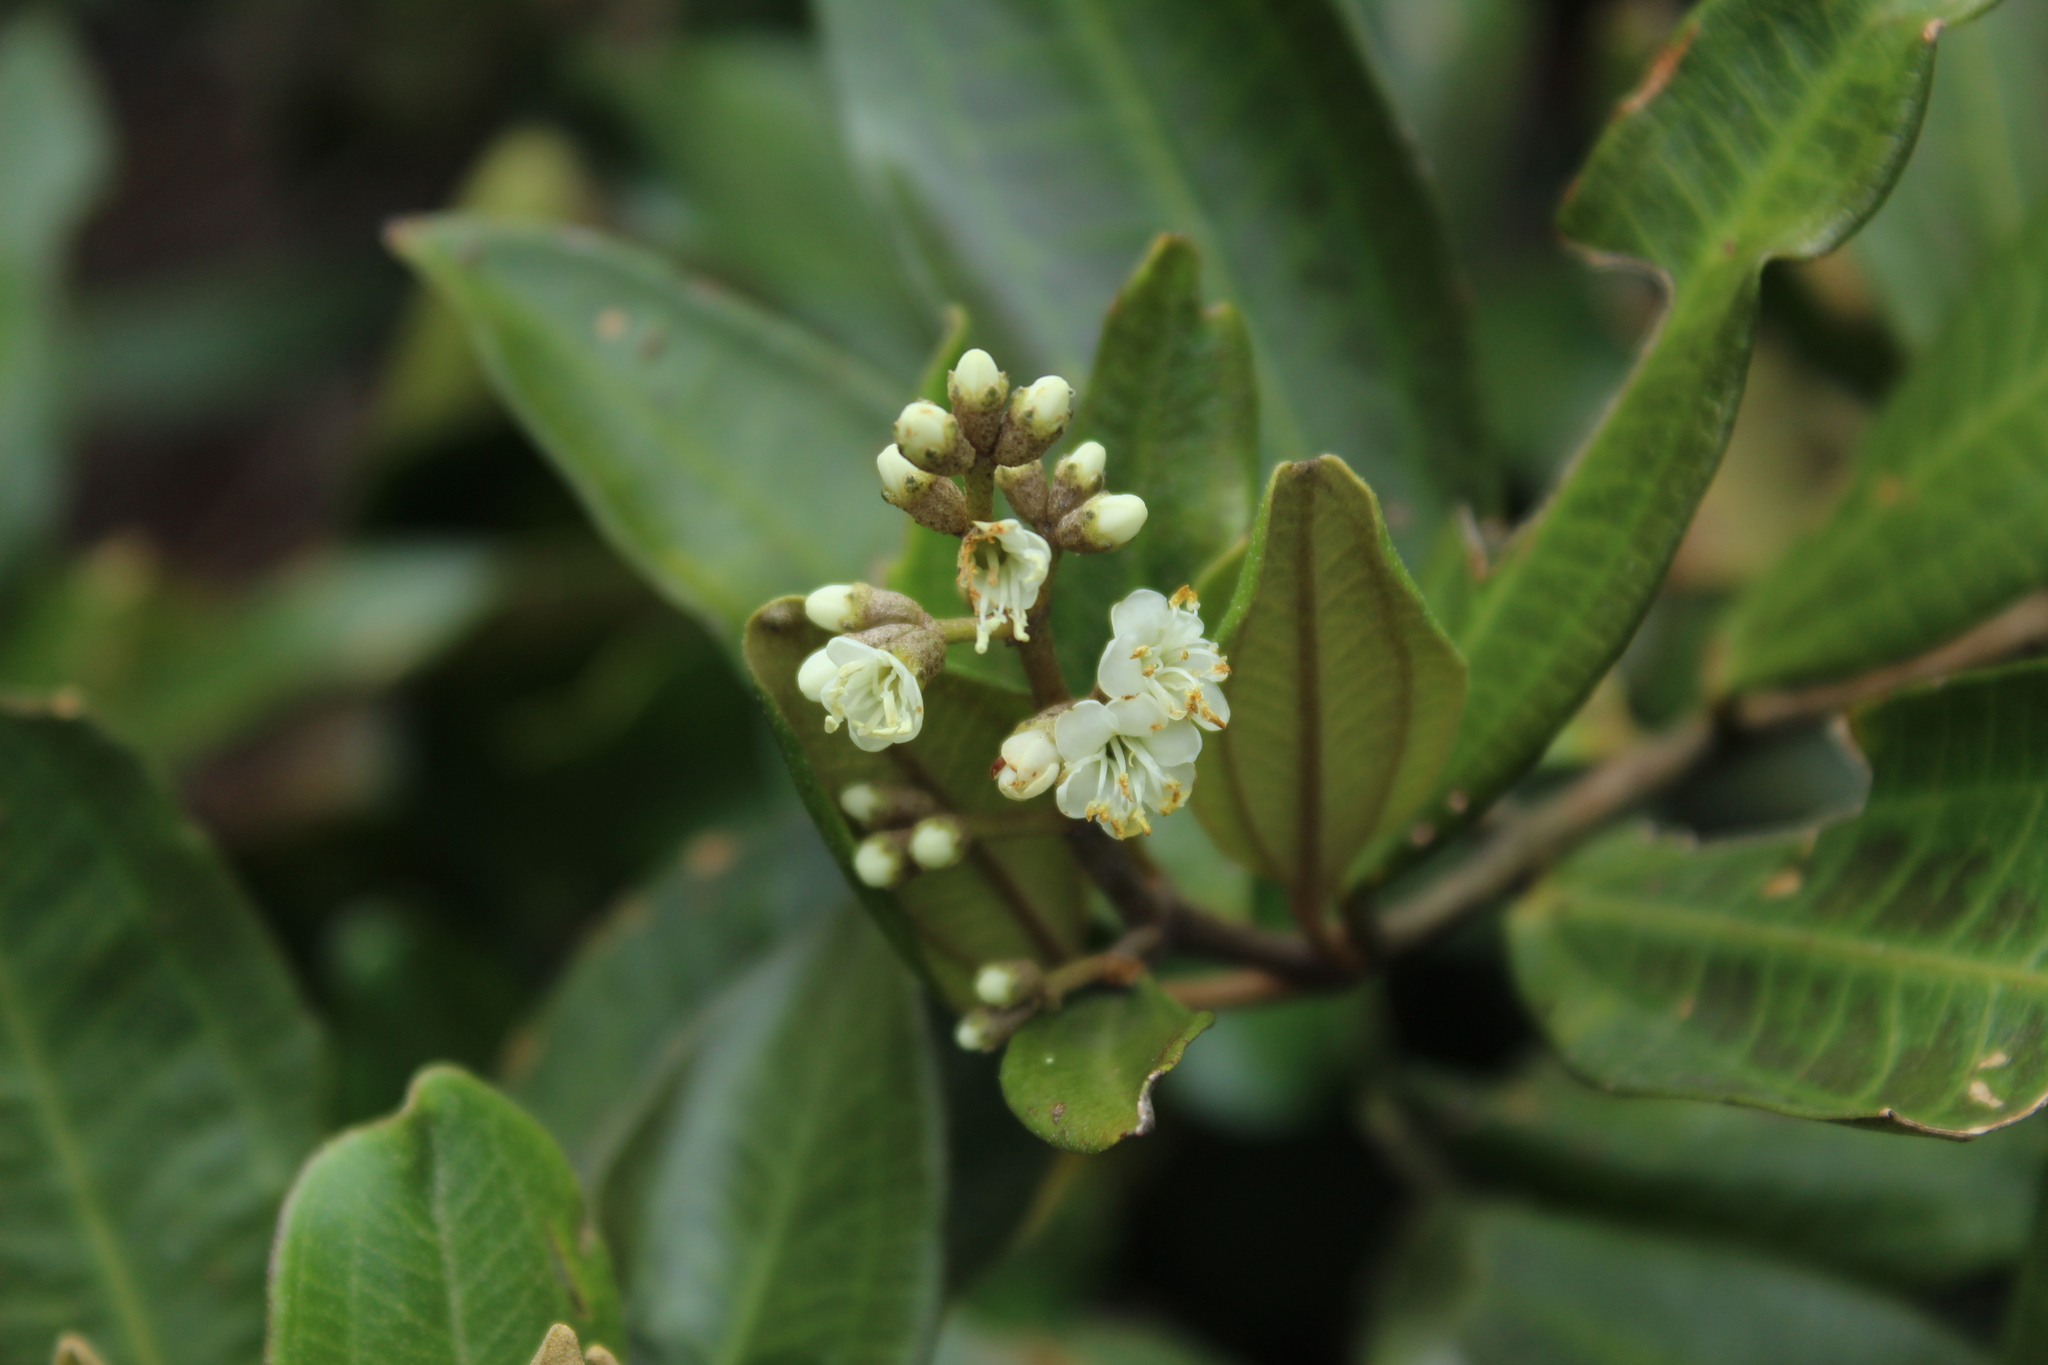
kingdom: Plantae
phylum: Tracheophyta
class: Magnoliopsida
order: Myrtales
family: Melastomataceae
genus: Miconia
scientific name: Miconia squamulosa
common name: Squamulose maya
